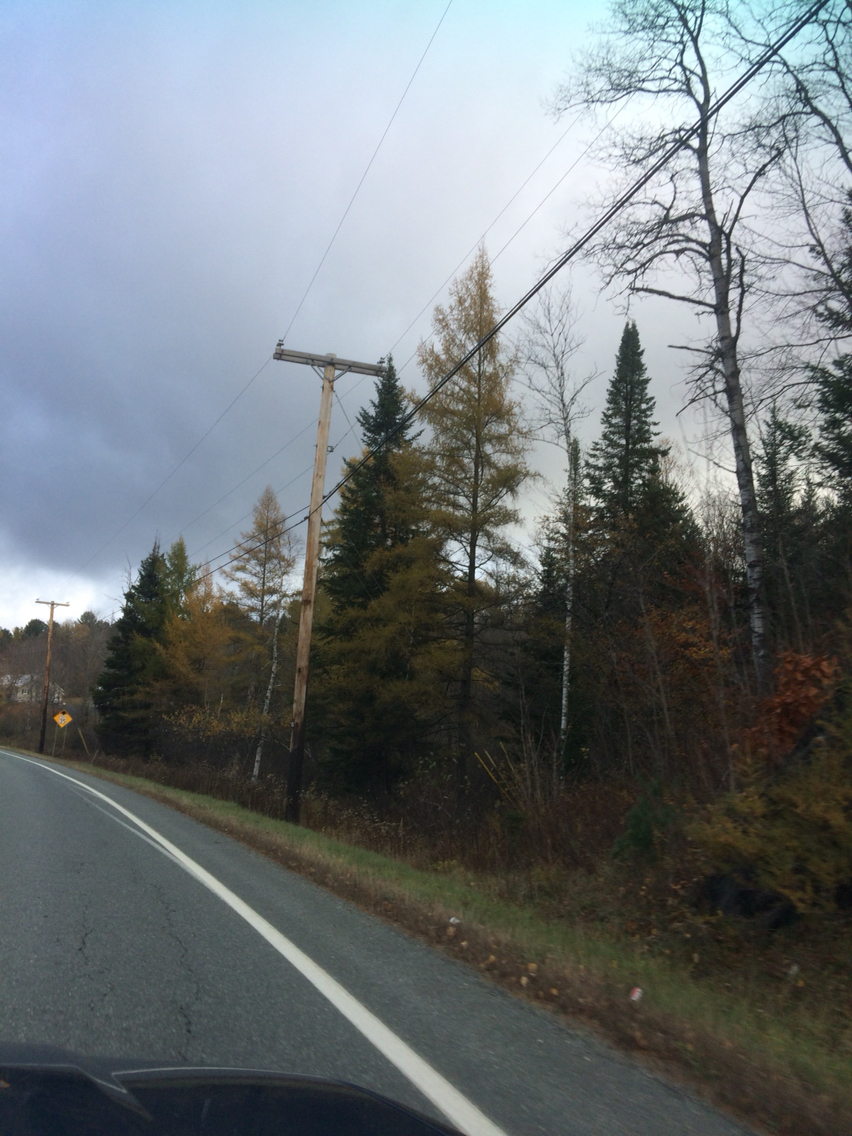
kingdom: Plantae
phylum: Tracheophyta
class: Pinopsida
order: Pinales
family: Pinaceae
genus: Abies
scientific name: Abies balsamea
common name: Balsam fir
